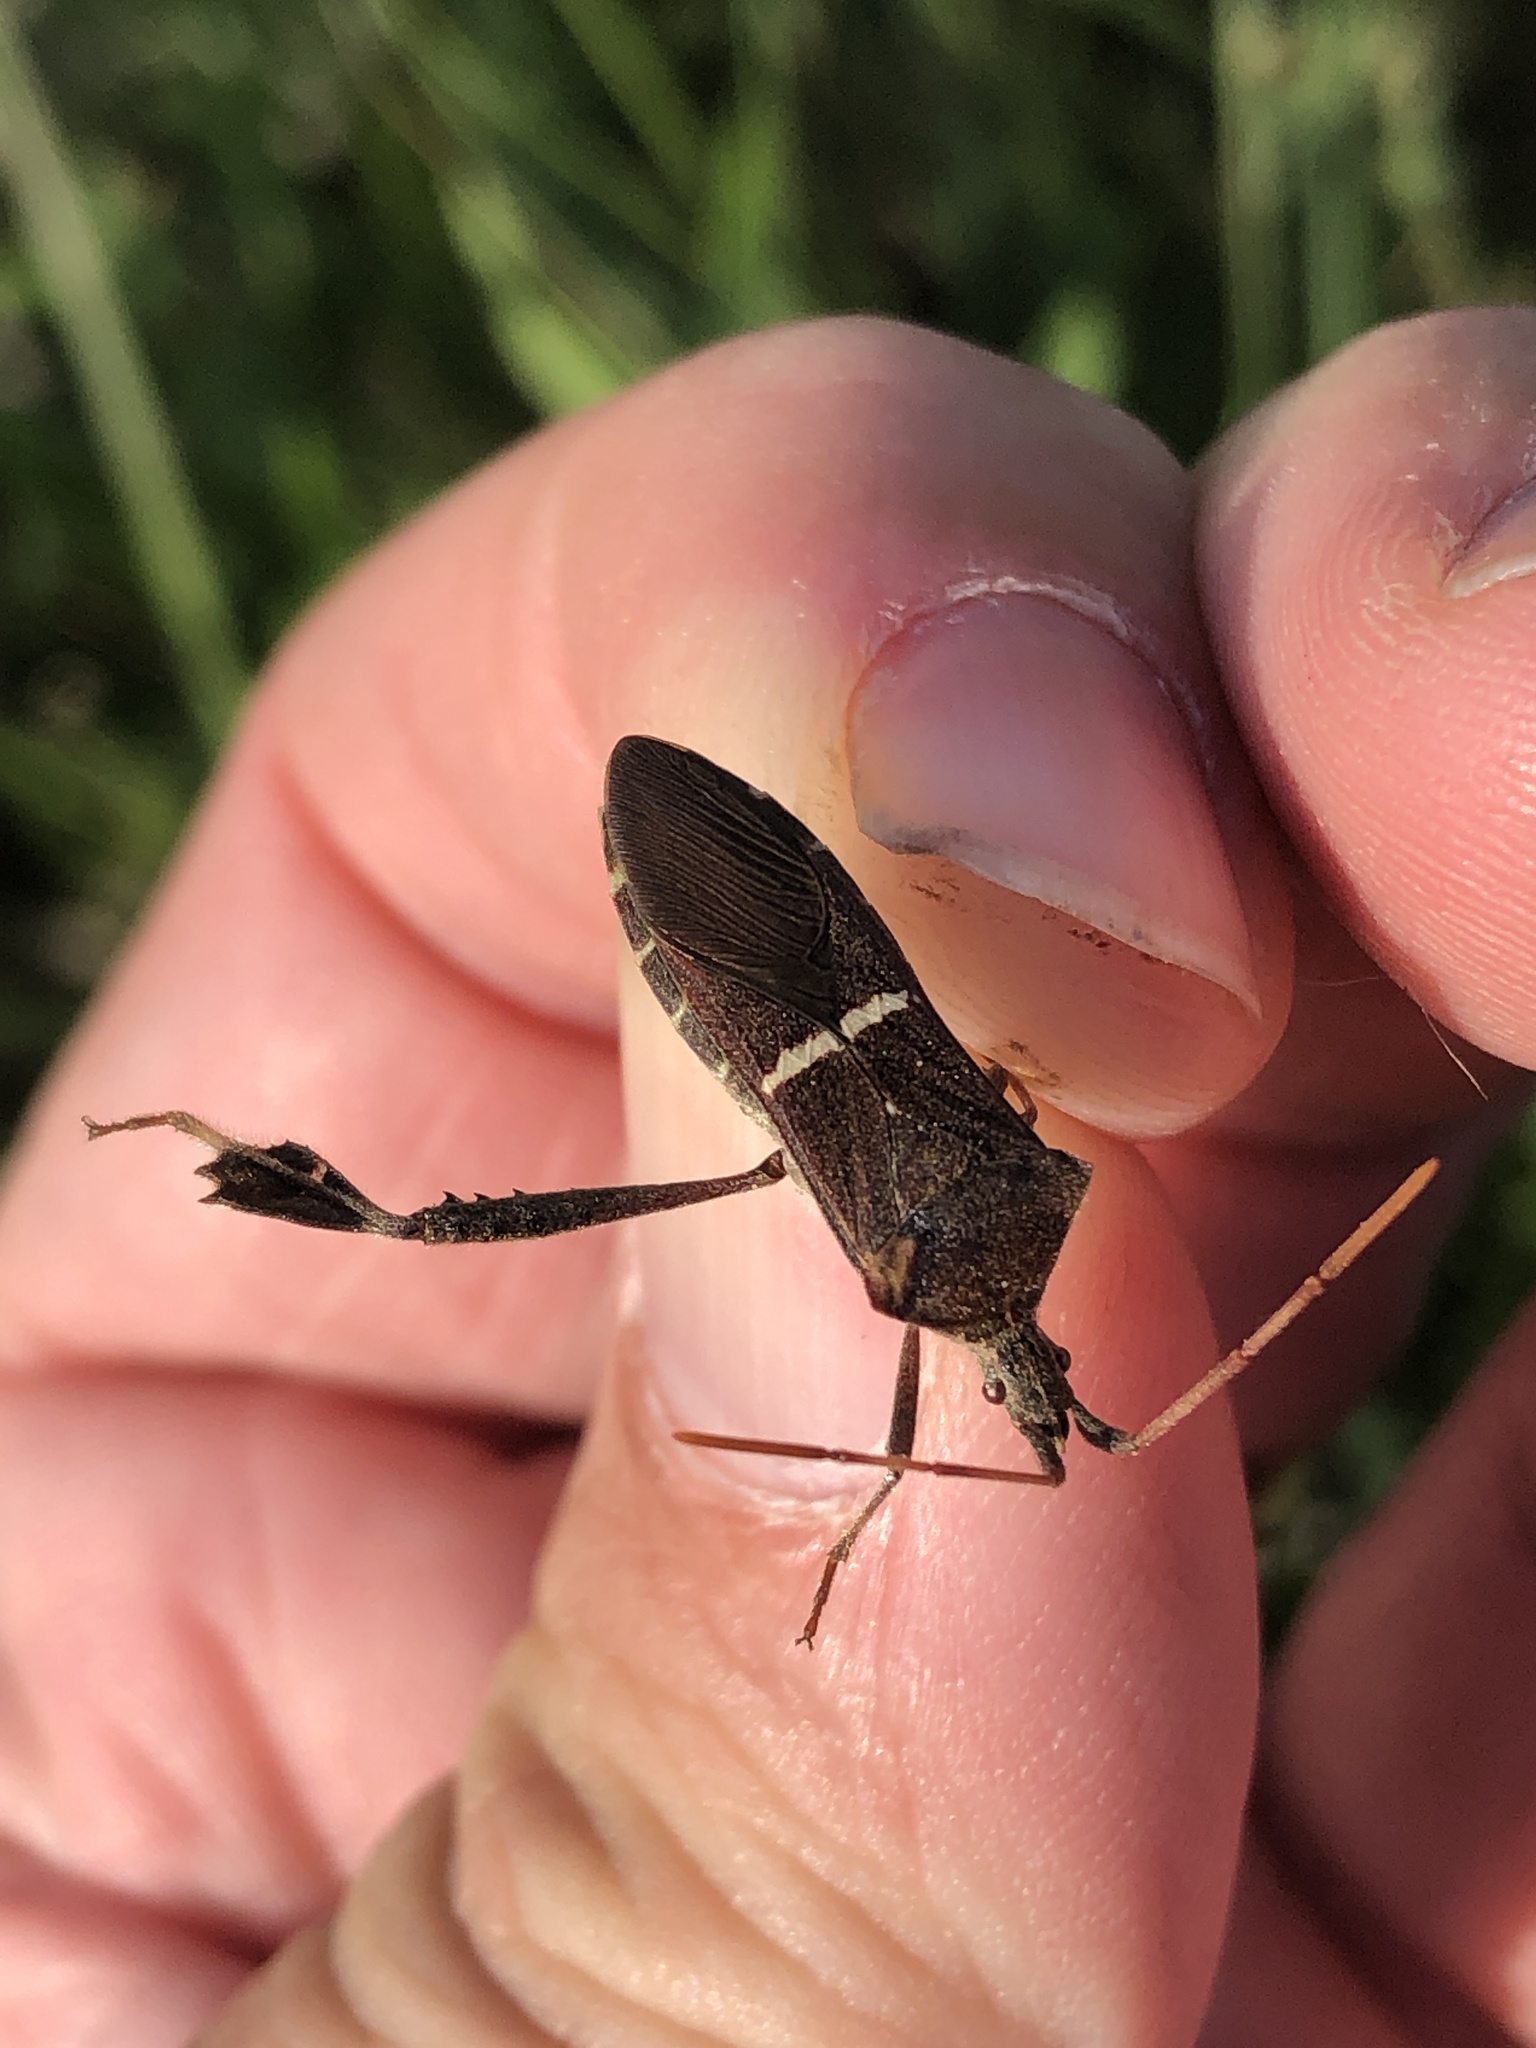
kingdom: Animalia
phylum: Arthropoda
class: Insecta
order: Hemiptera
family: Coreidae
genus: Leptoglossus
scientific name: Leptoglossus phyllopus
